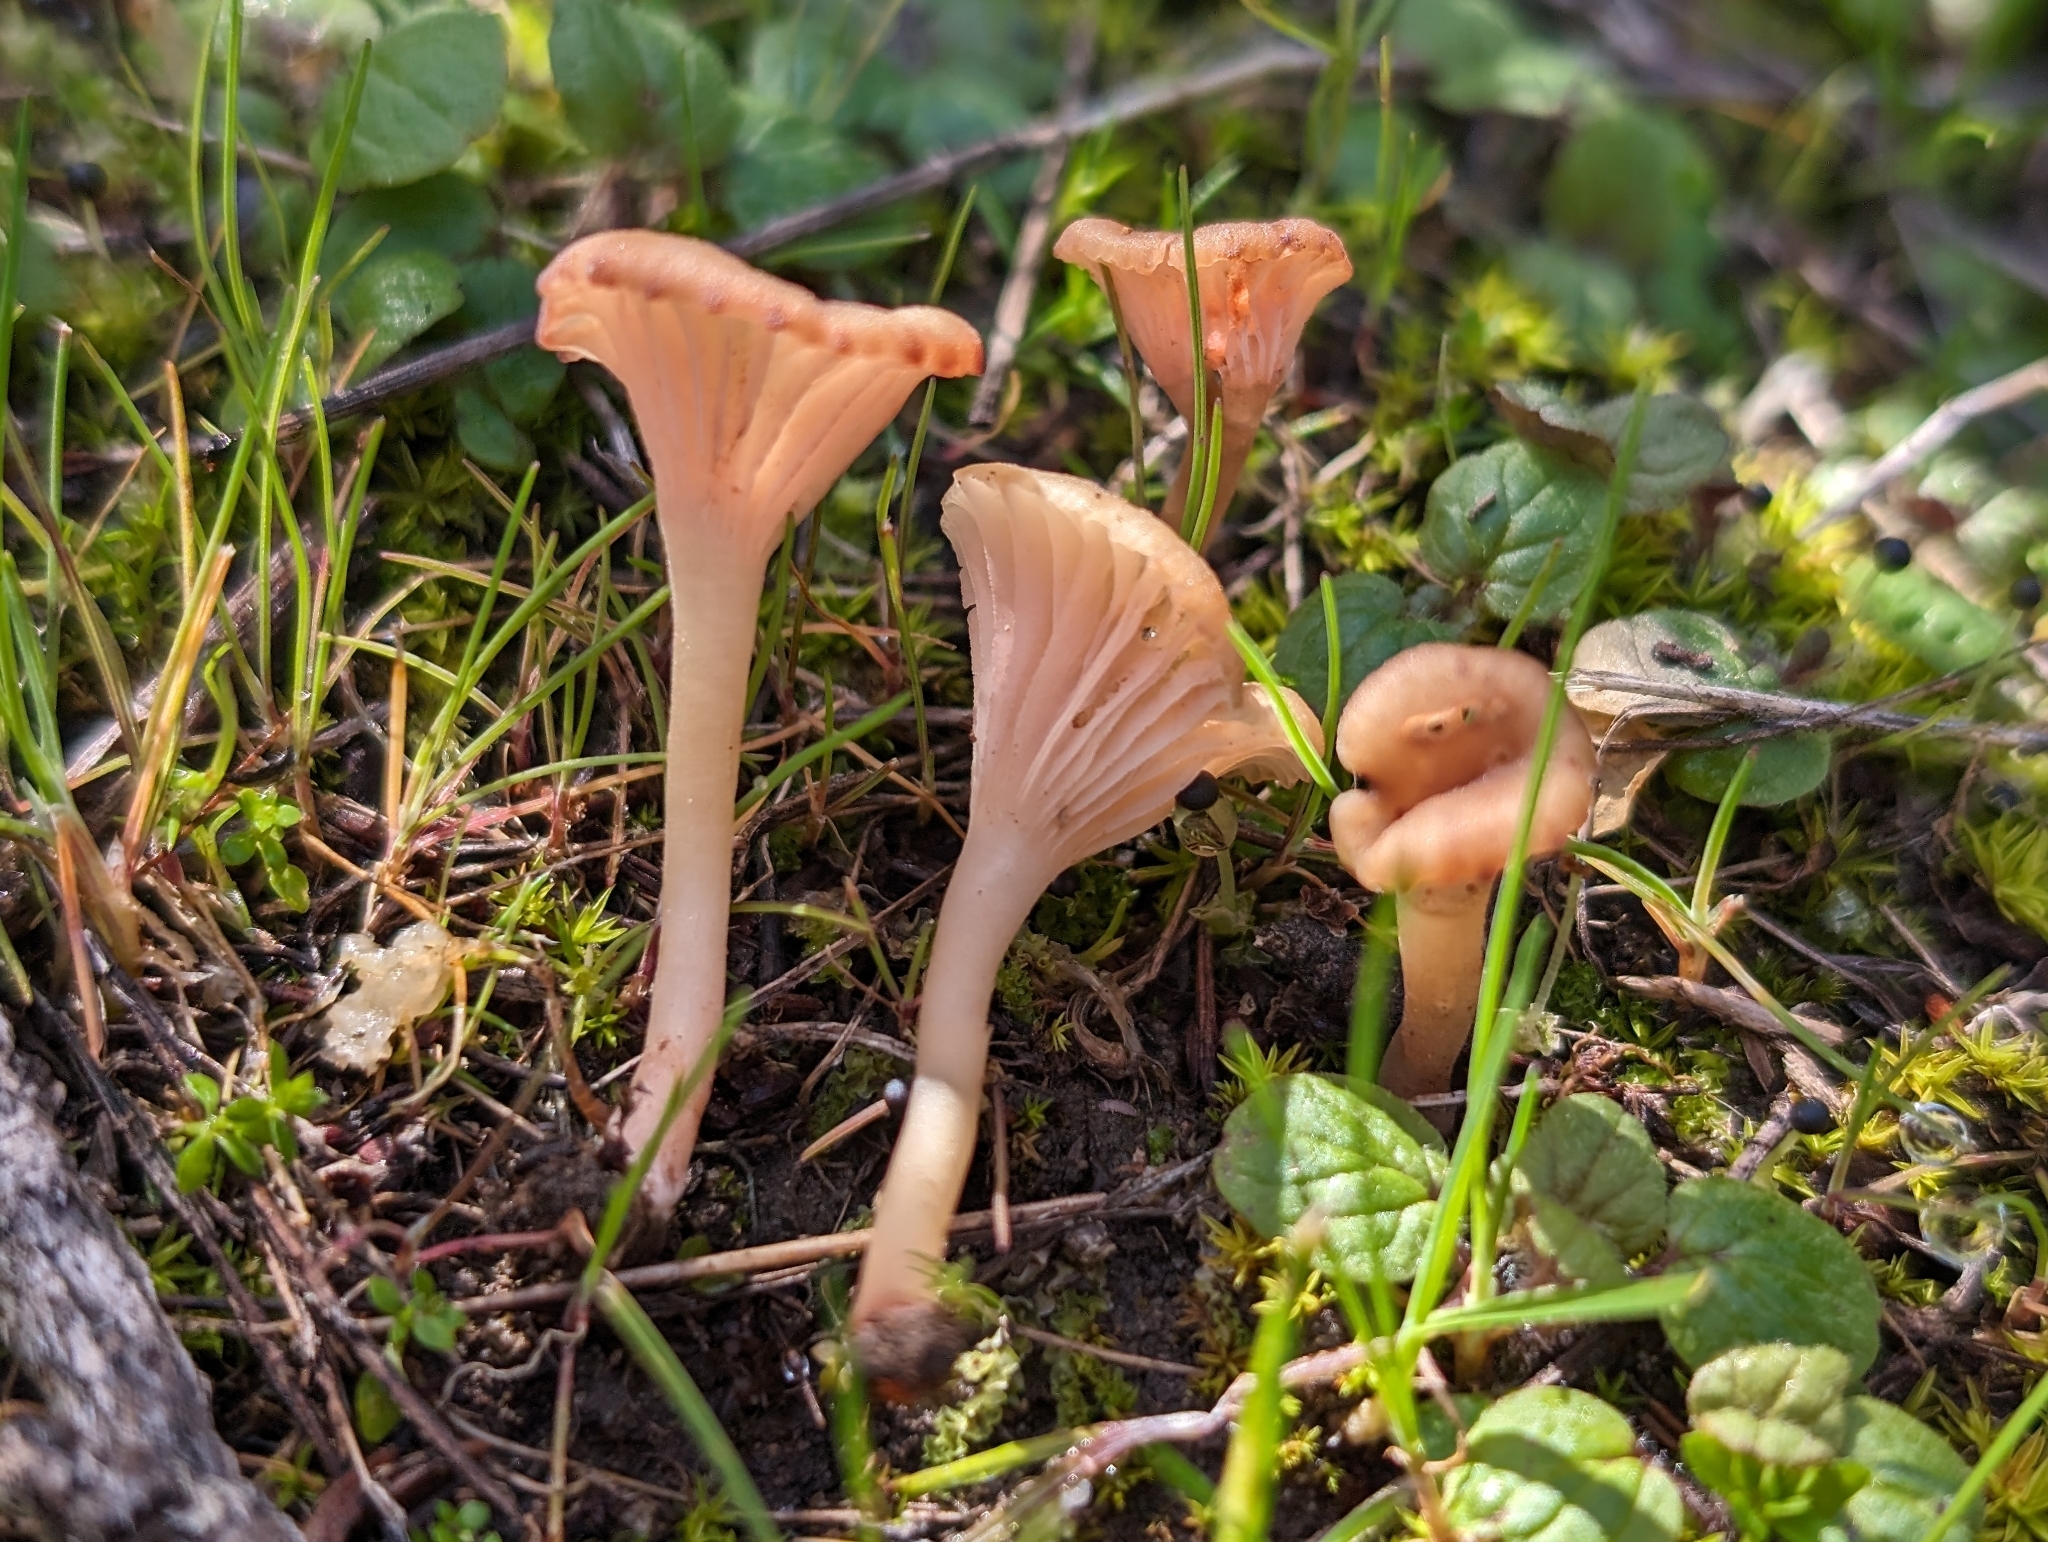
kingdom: Fungi
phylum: Basidiomycota
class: Agaricomycetes
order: Hymenochaetales
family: Rickenellaceae
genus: Contumyces
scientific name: Contumyces rosellus
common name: Rosy navel
